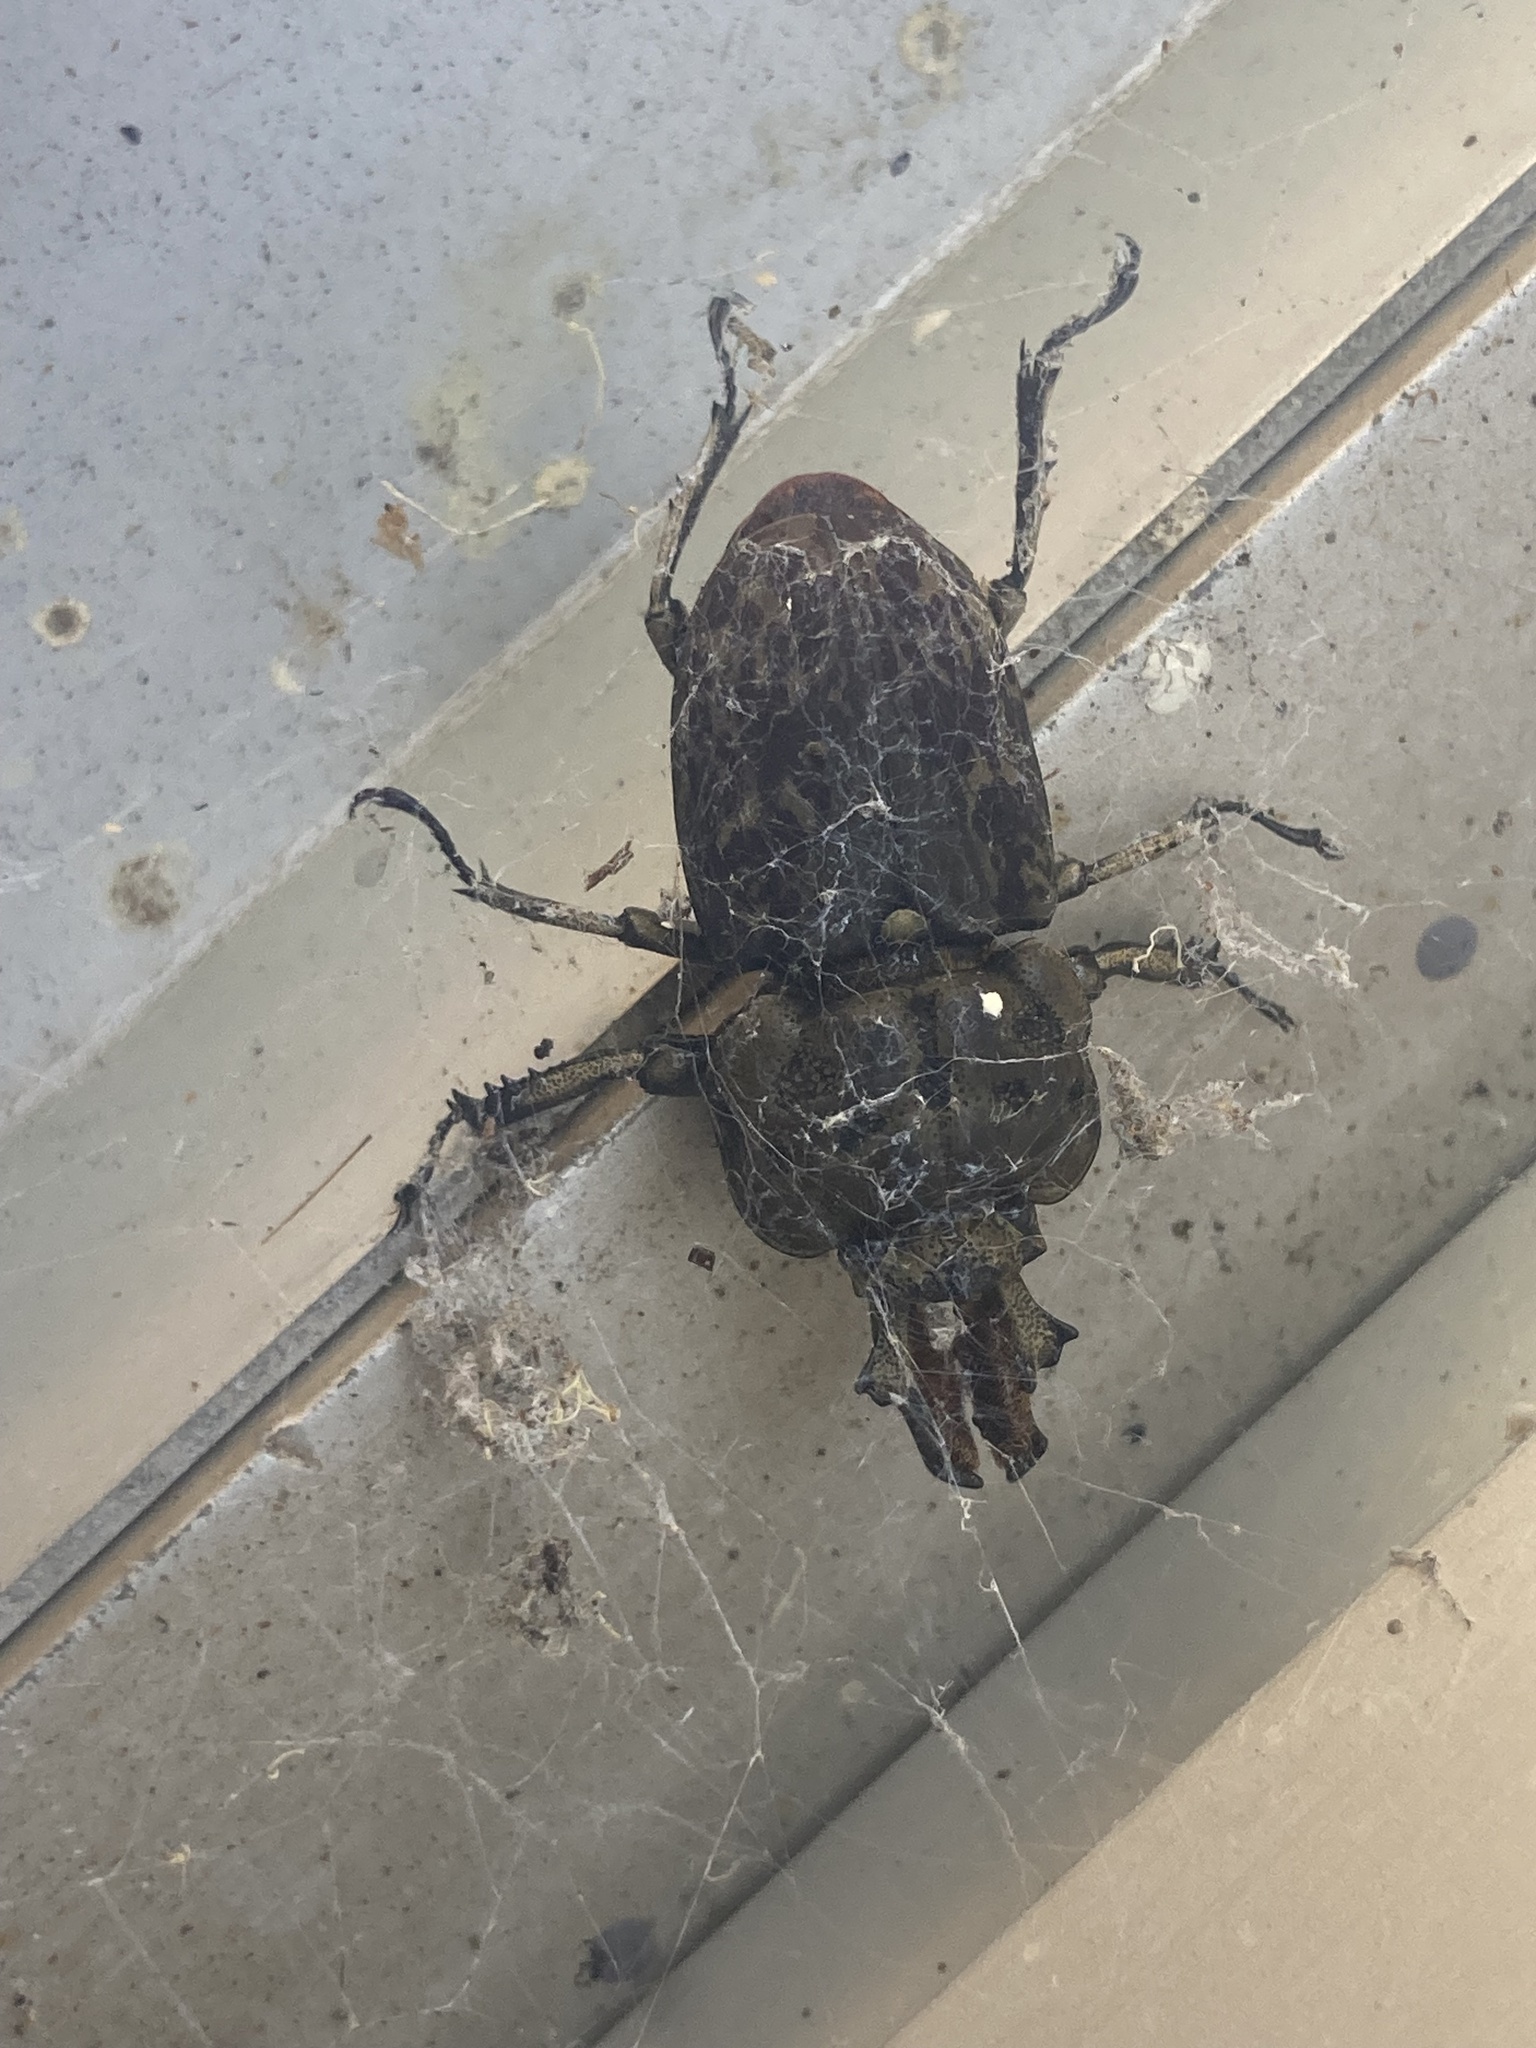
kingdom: Animalia
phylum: Arthropoda
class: Insecta
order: Coleoptera
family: Lucanidae
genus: Ryssonotus
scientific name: Ryssonotus nebulosus
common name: Brown stag beetle
